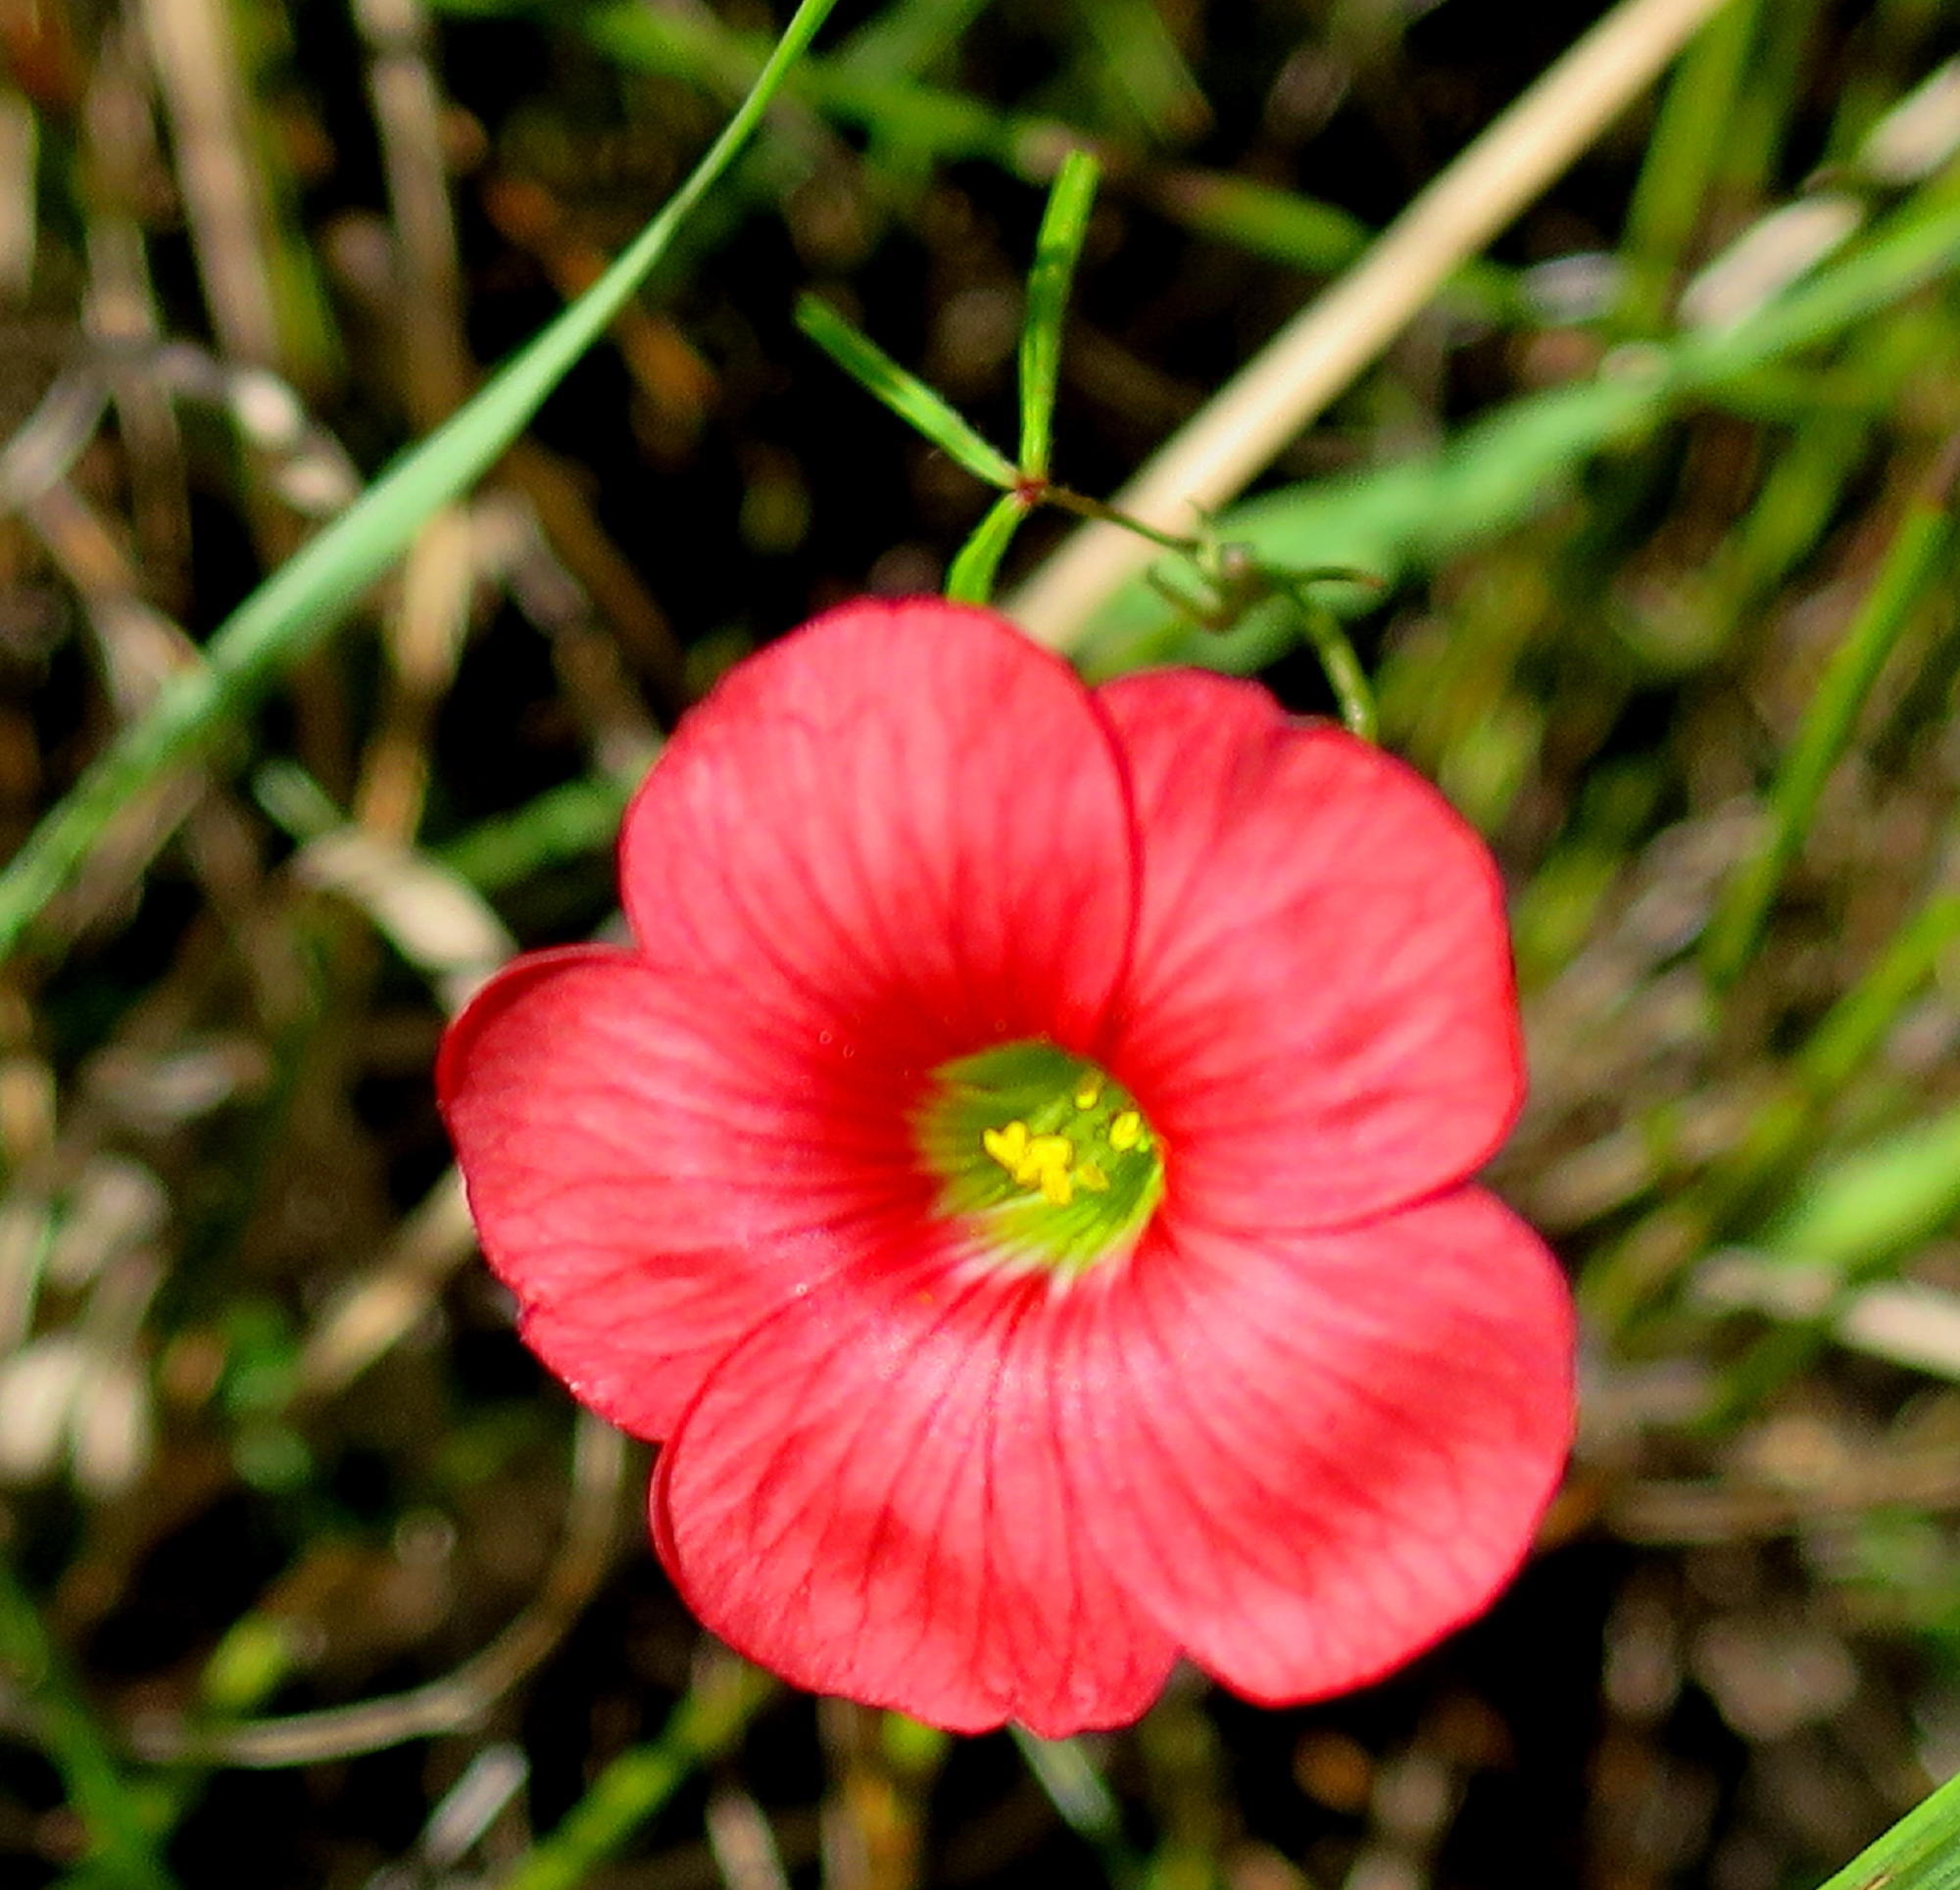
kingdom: Plantae
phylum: Tracheophyta
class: Magnoliopsida
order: Oxalidales
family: Oxalidaceae
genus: Oxalis
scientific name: Oxalis pendulifolia
